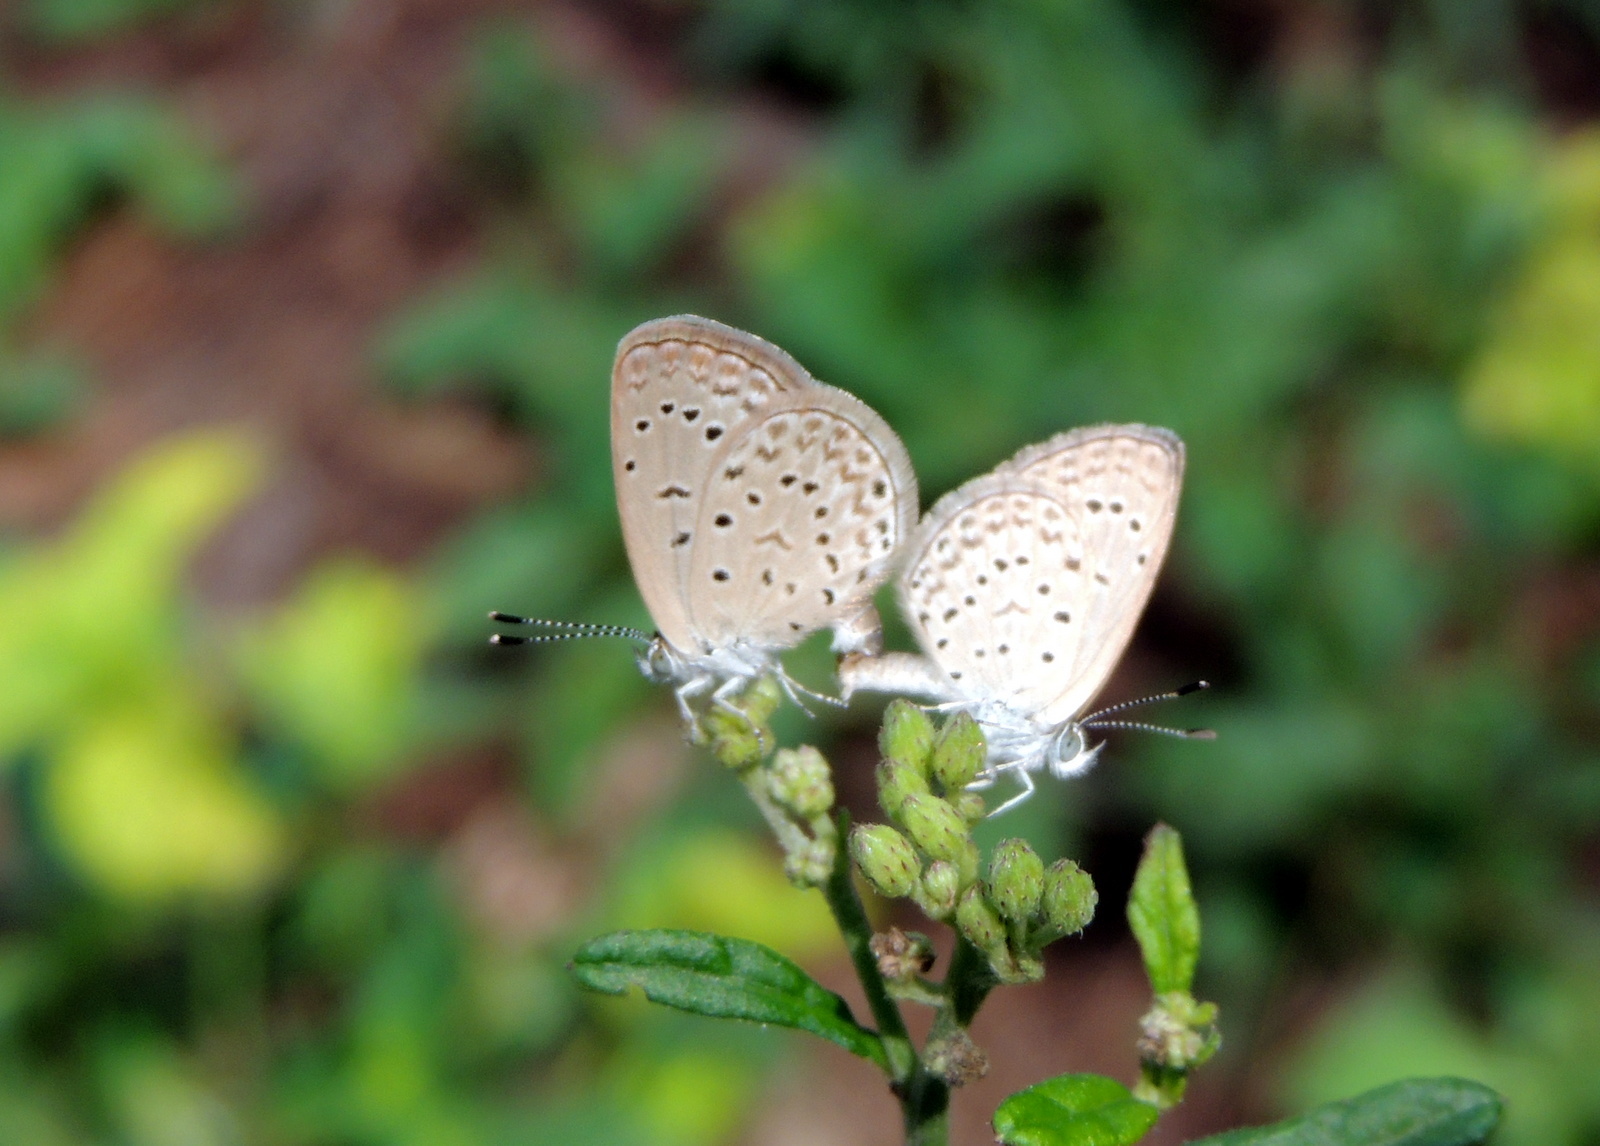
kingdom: Animalia
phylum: Arthropoda
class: Insecta
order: Lepidoptera
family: Lycaenidae
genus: Zizeeria
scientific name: Zizeeria knysna
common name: African grass blue
